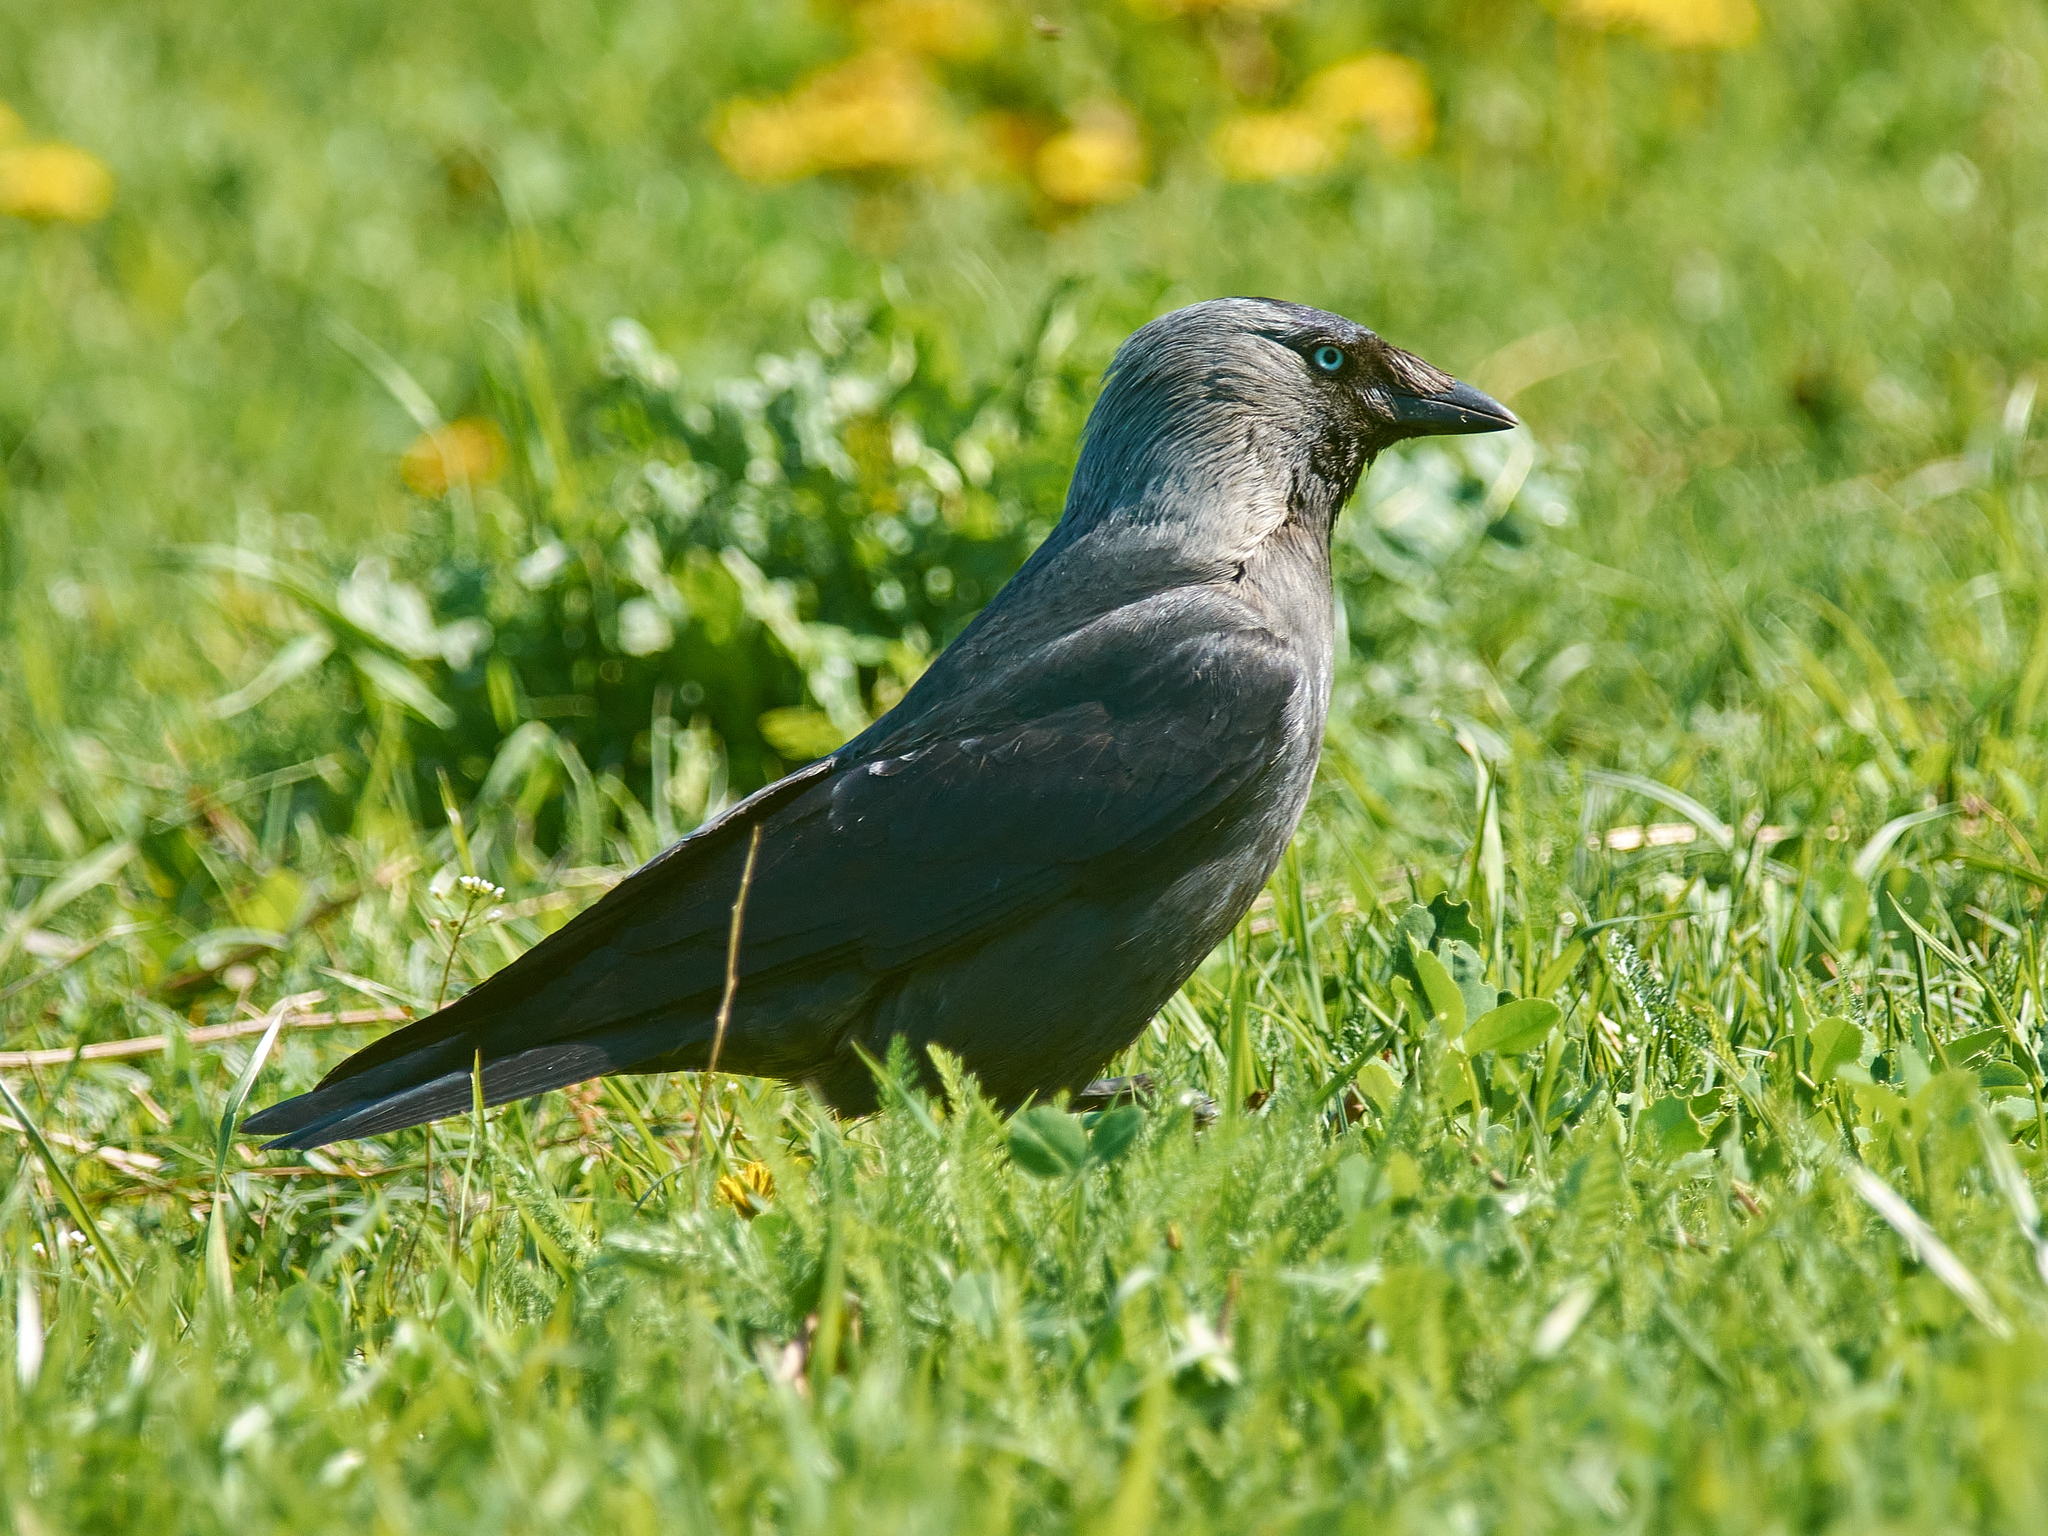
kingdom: Animalia
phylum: Chordata
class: Aves
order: Passeriformes
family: Corvidae
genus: Coloeus
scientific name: Coloeus monedula
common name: Western jackdaw
